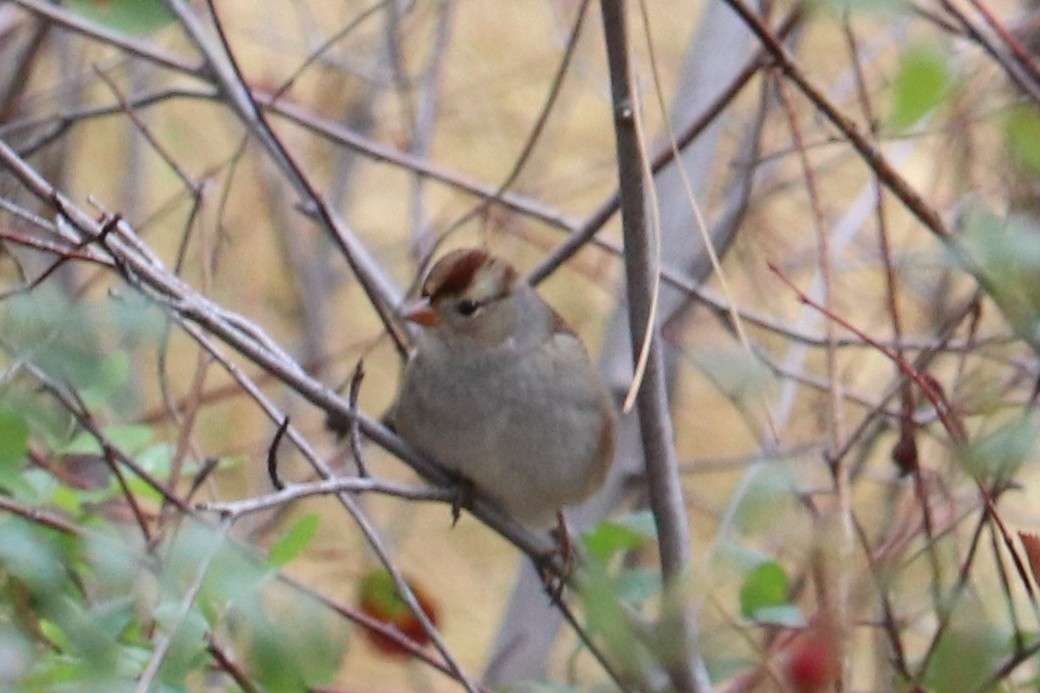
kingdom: Animalia
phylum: Chordata
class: Aves
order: Passeriformes
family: Passerellidae
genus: Zonotrichia
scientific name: Zonotrichia leucophrys
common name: White-crowned sparrow
